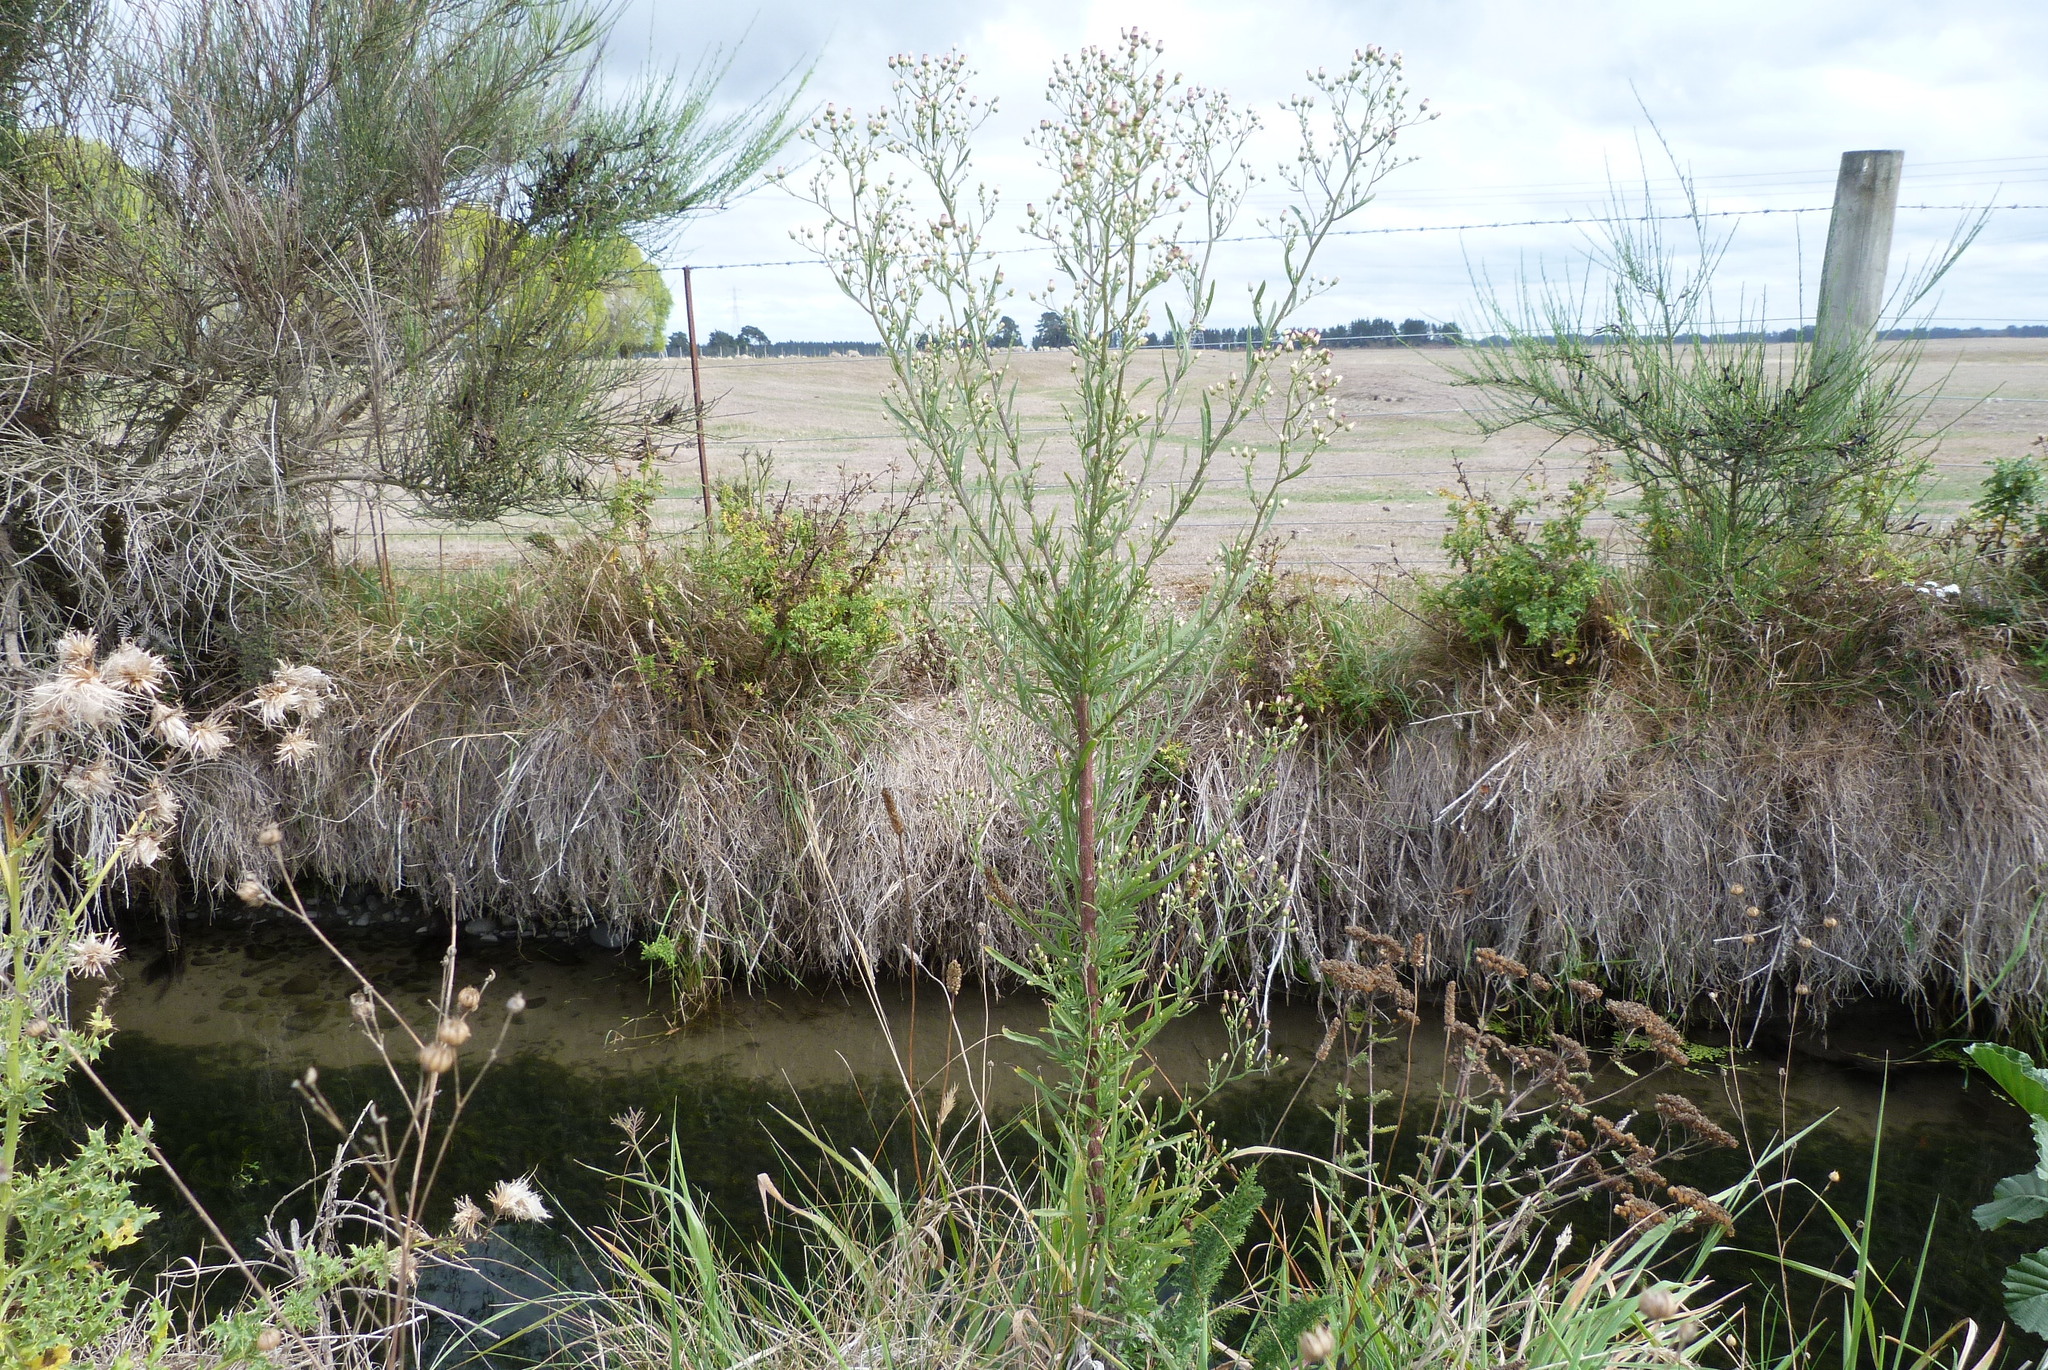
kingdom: Plantae
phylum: Tracheophyta
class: Magnoliopsida
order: Asterales
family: Asteraceae
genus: Erigeron
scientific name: Erigeron bonariensis
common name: Argentine fleabane
